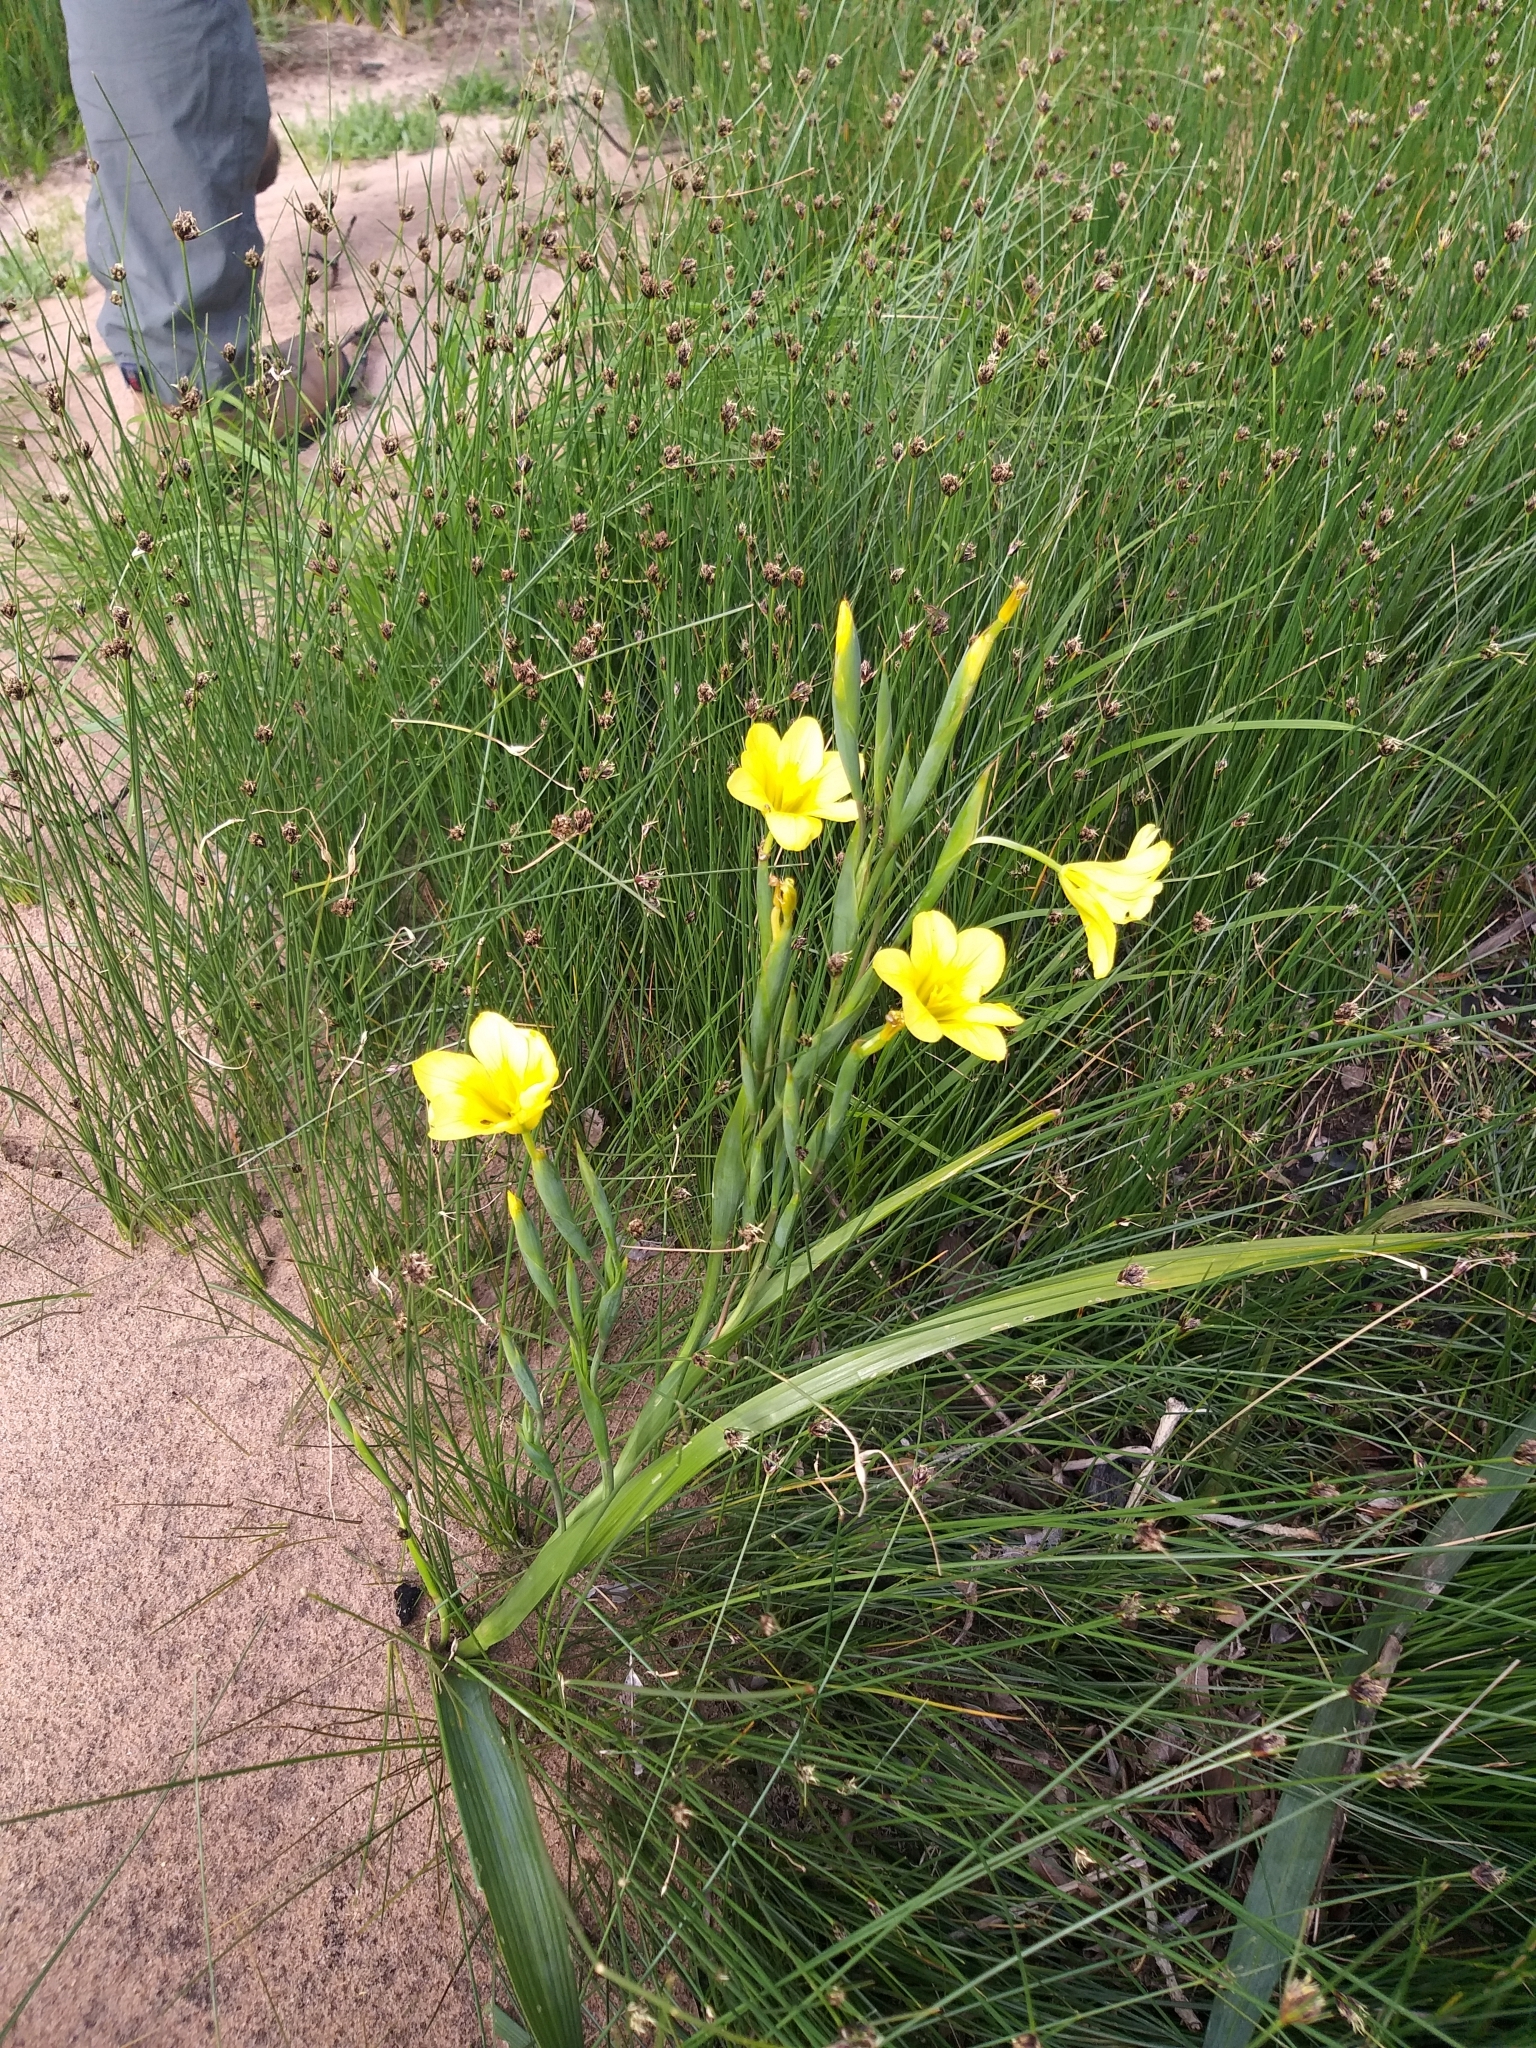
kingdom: Plantae
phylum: Tracheophyta
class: Liliopsida
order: Asparagales
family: Iridaceae
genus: Moraea
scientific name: Moraea ochroleuca
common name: Red tulp
